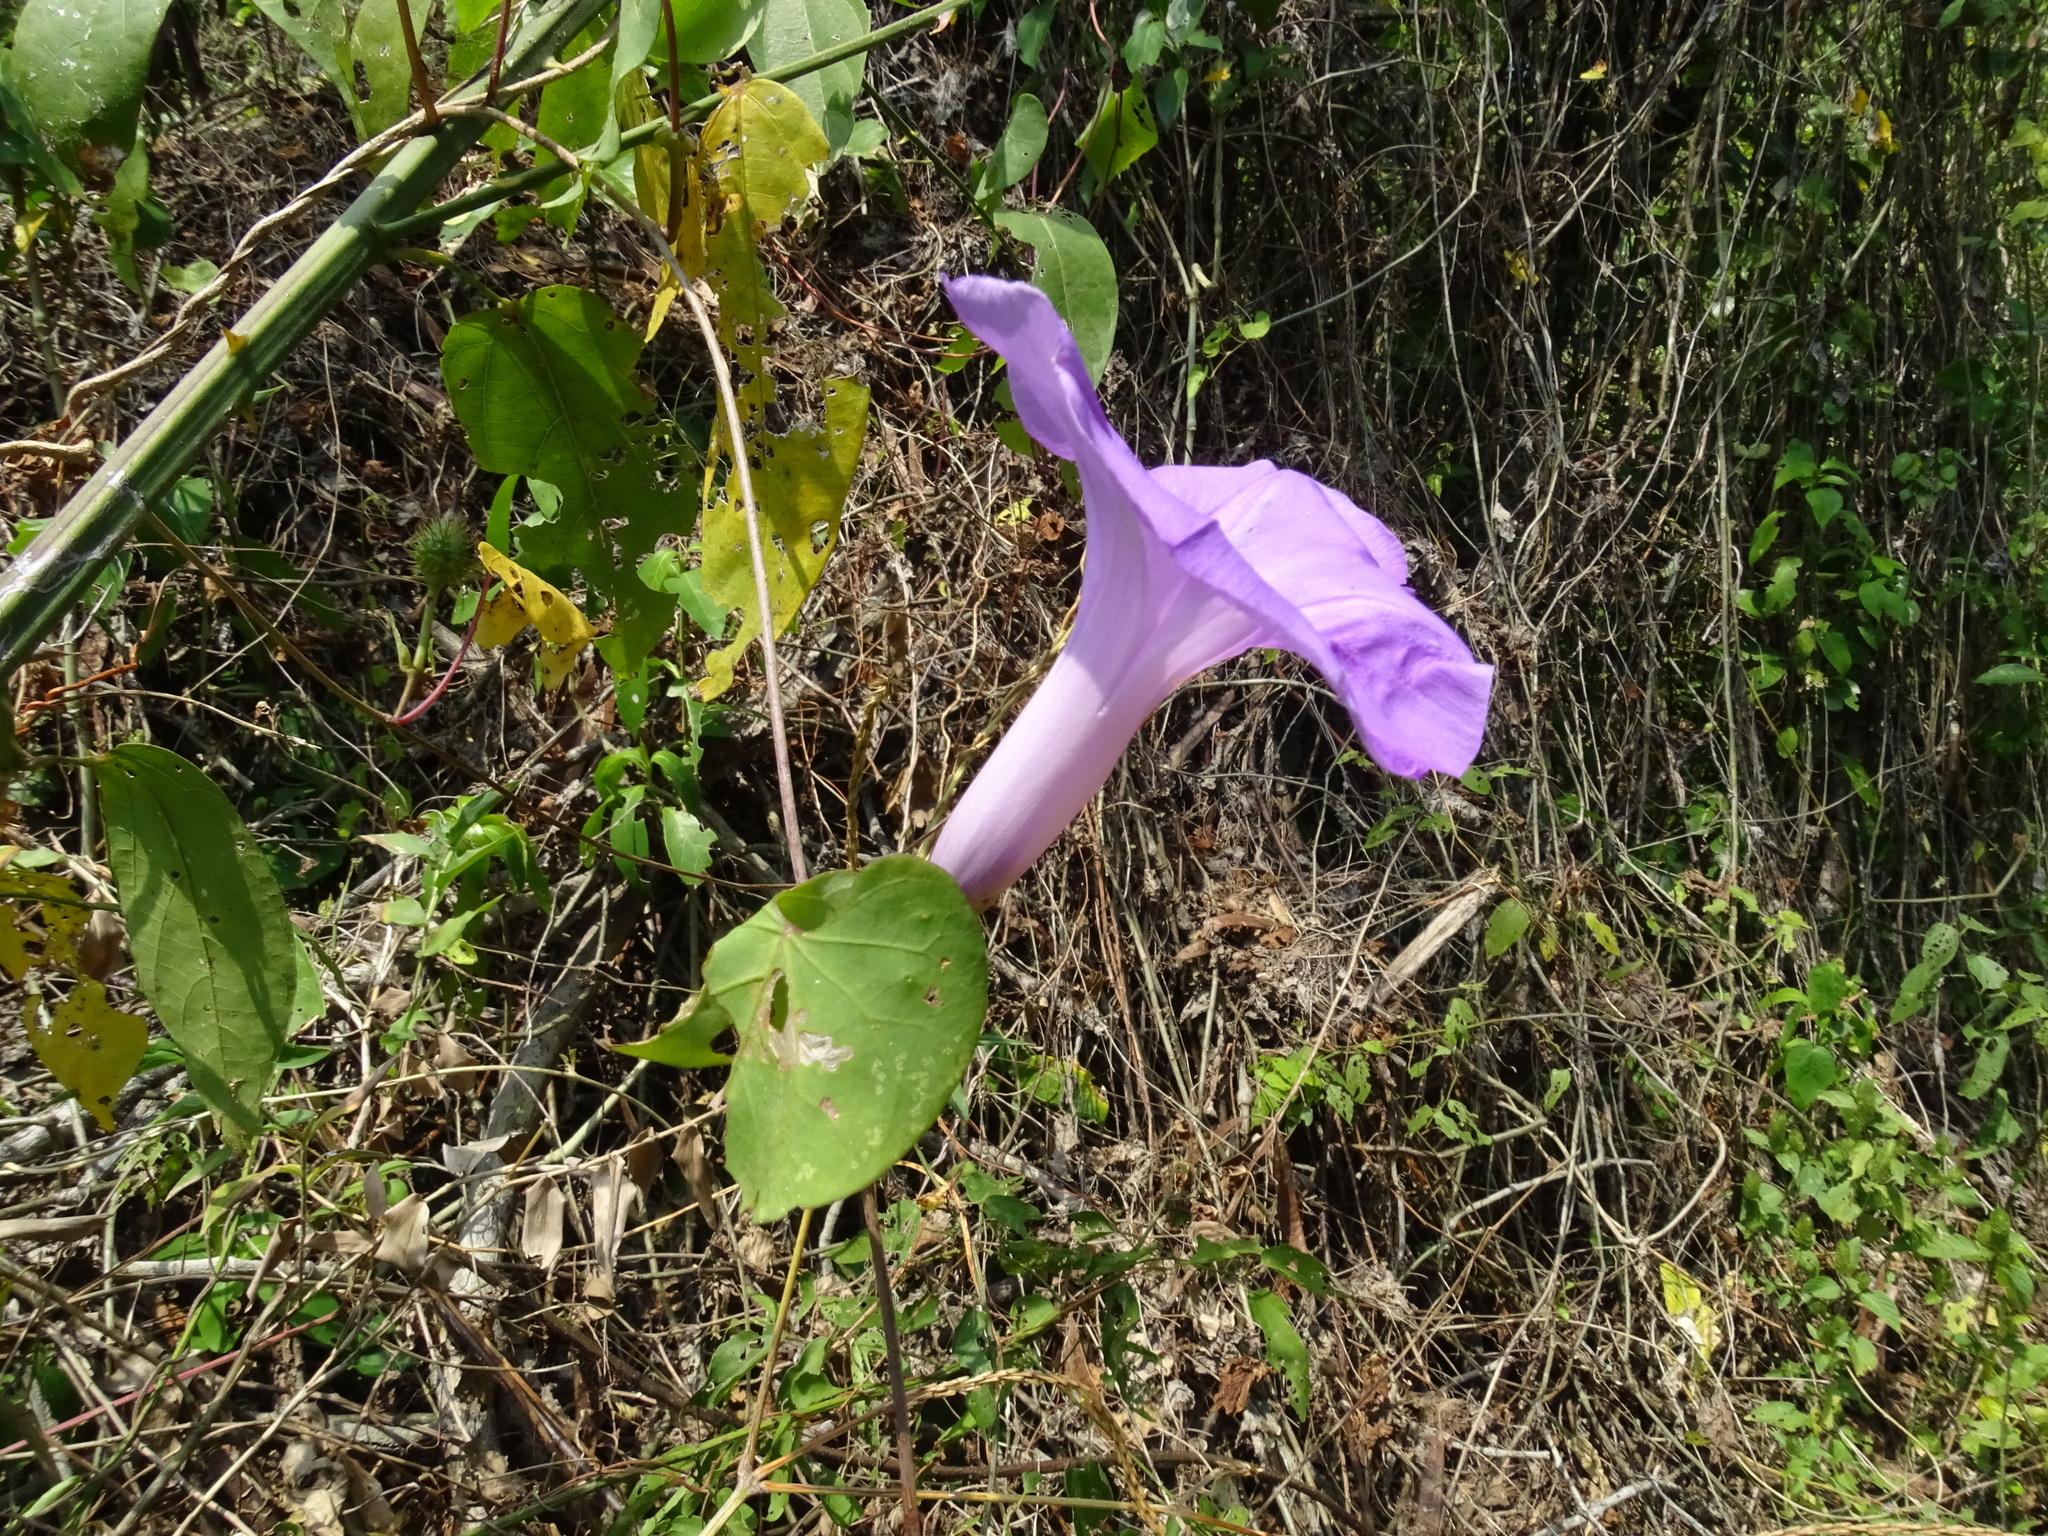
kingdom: Plantae
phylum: Tracheophyta
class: Magnoliopsida
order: Solanales
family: Convolvulaceae
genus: Ipomoea
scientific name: Ipomoea crinicalyx
